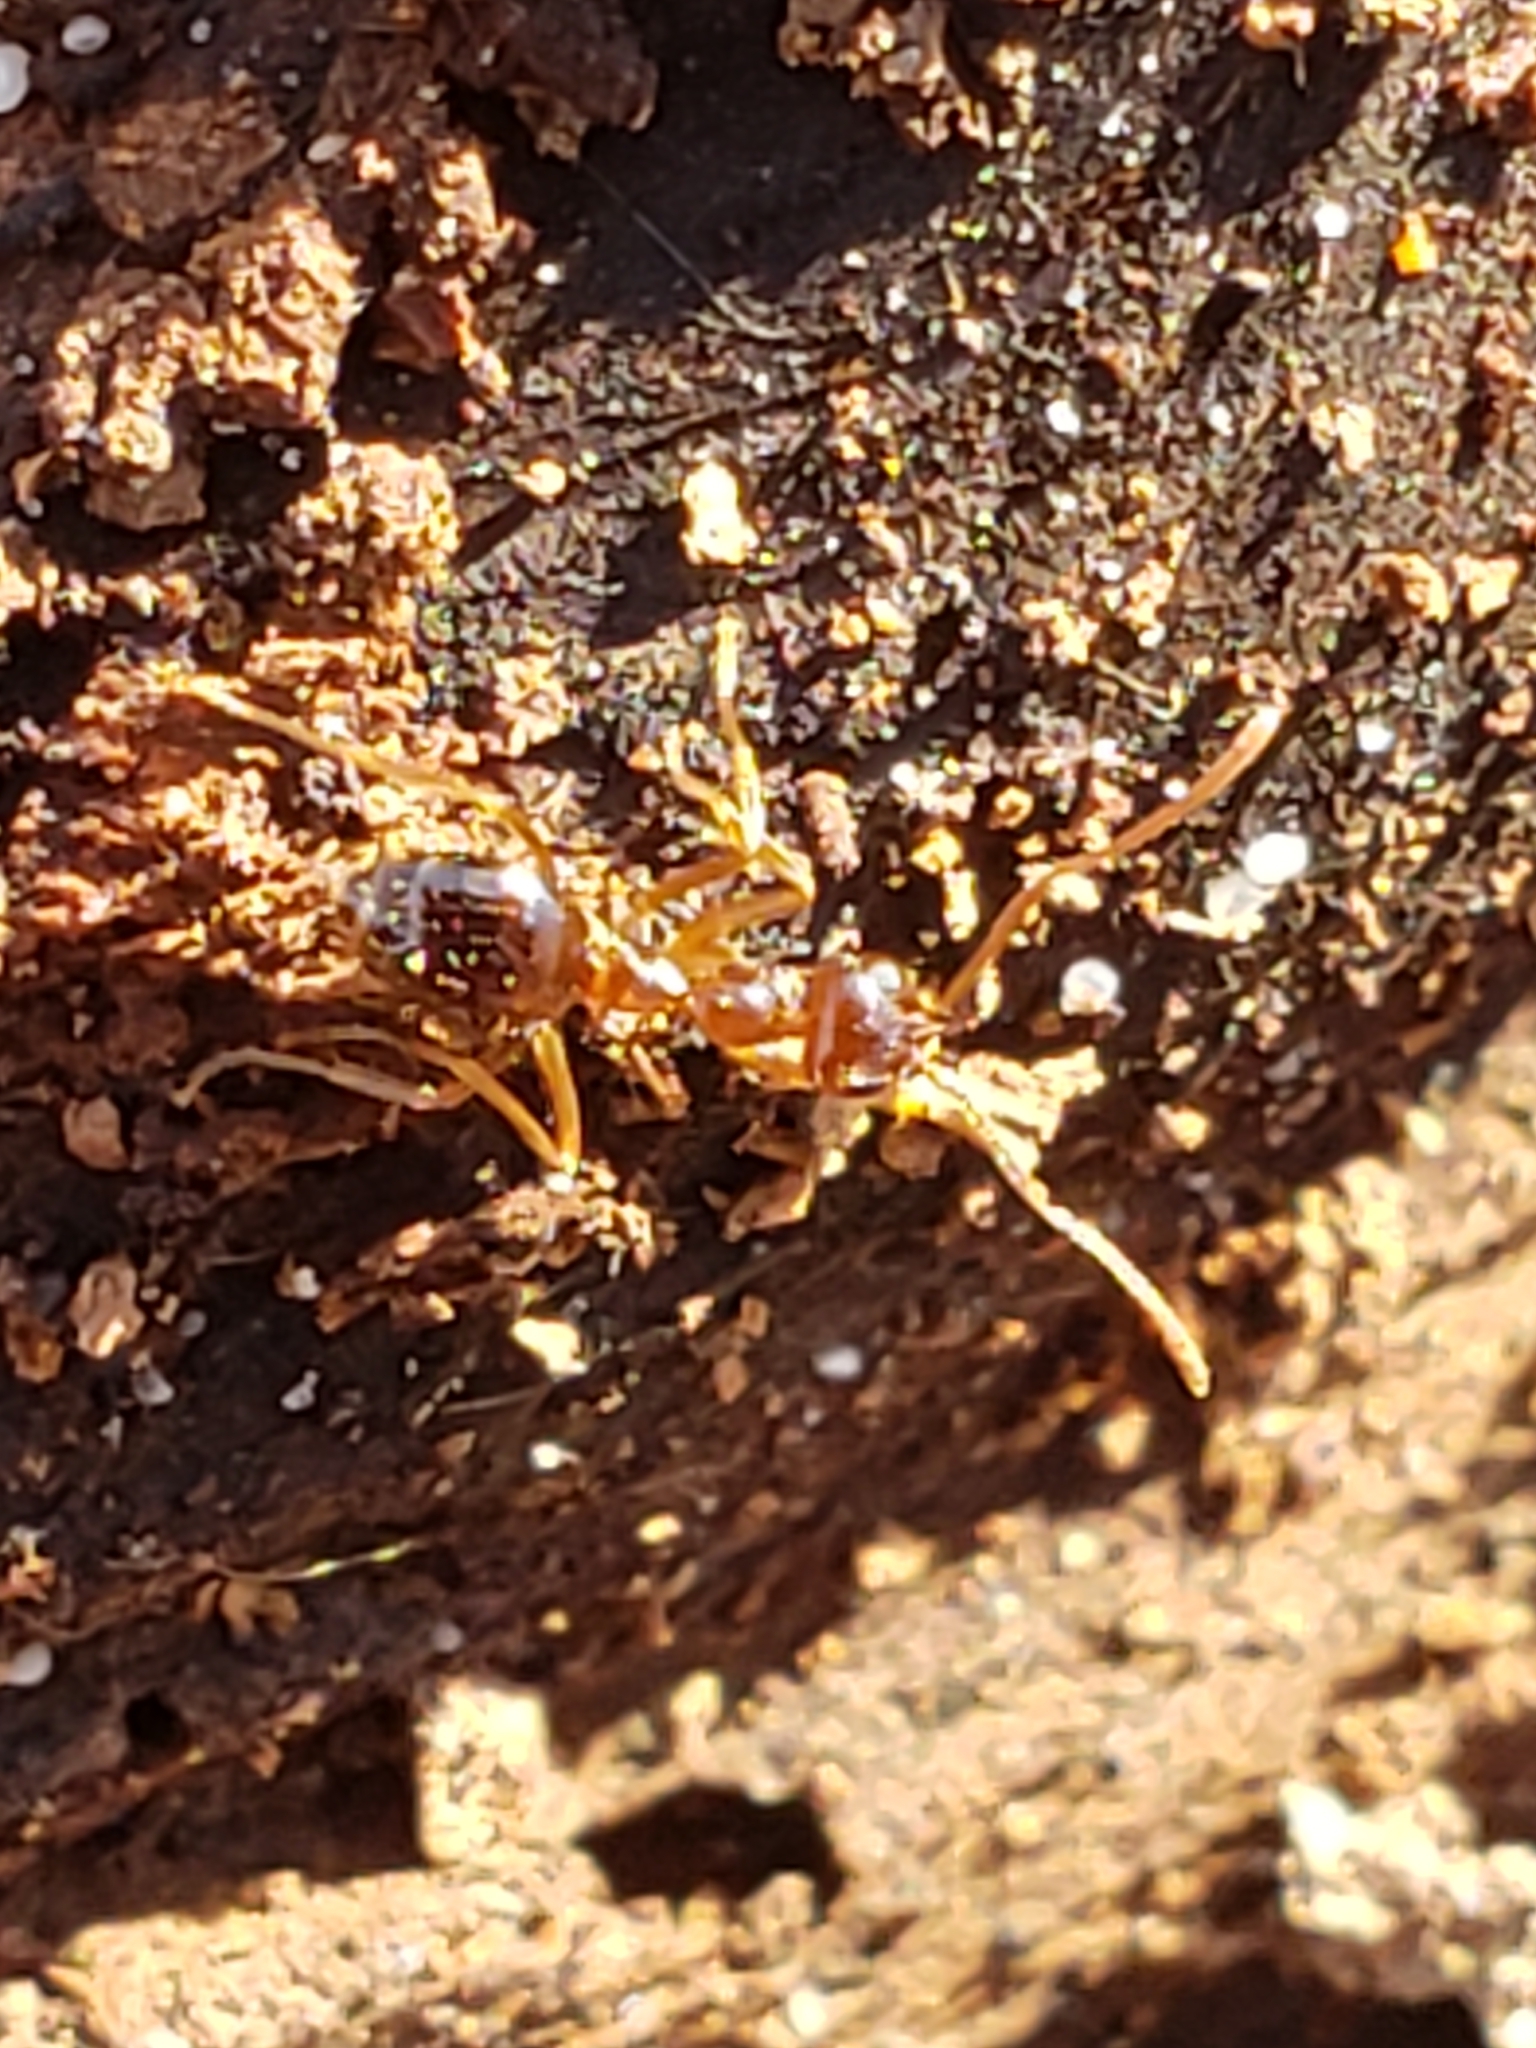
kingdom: Animalia
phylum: Arthropoda
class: Insecta
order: Hymenoptera
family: Formicidae
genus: Prenolepis
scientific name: Prenolepis imparis
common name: Small honey ant
